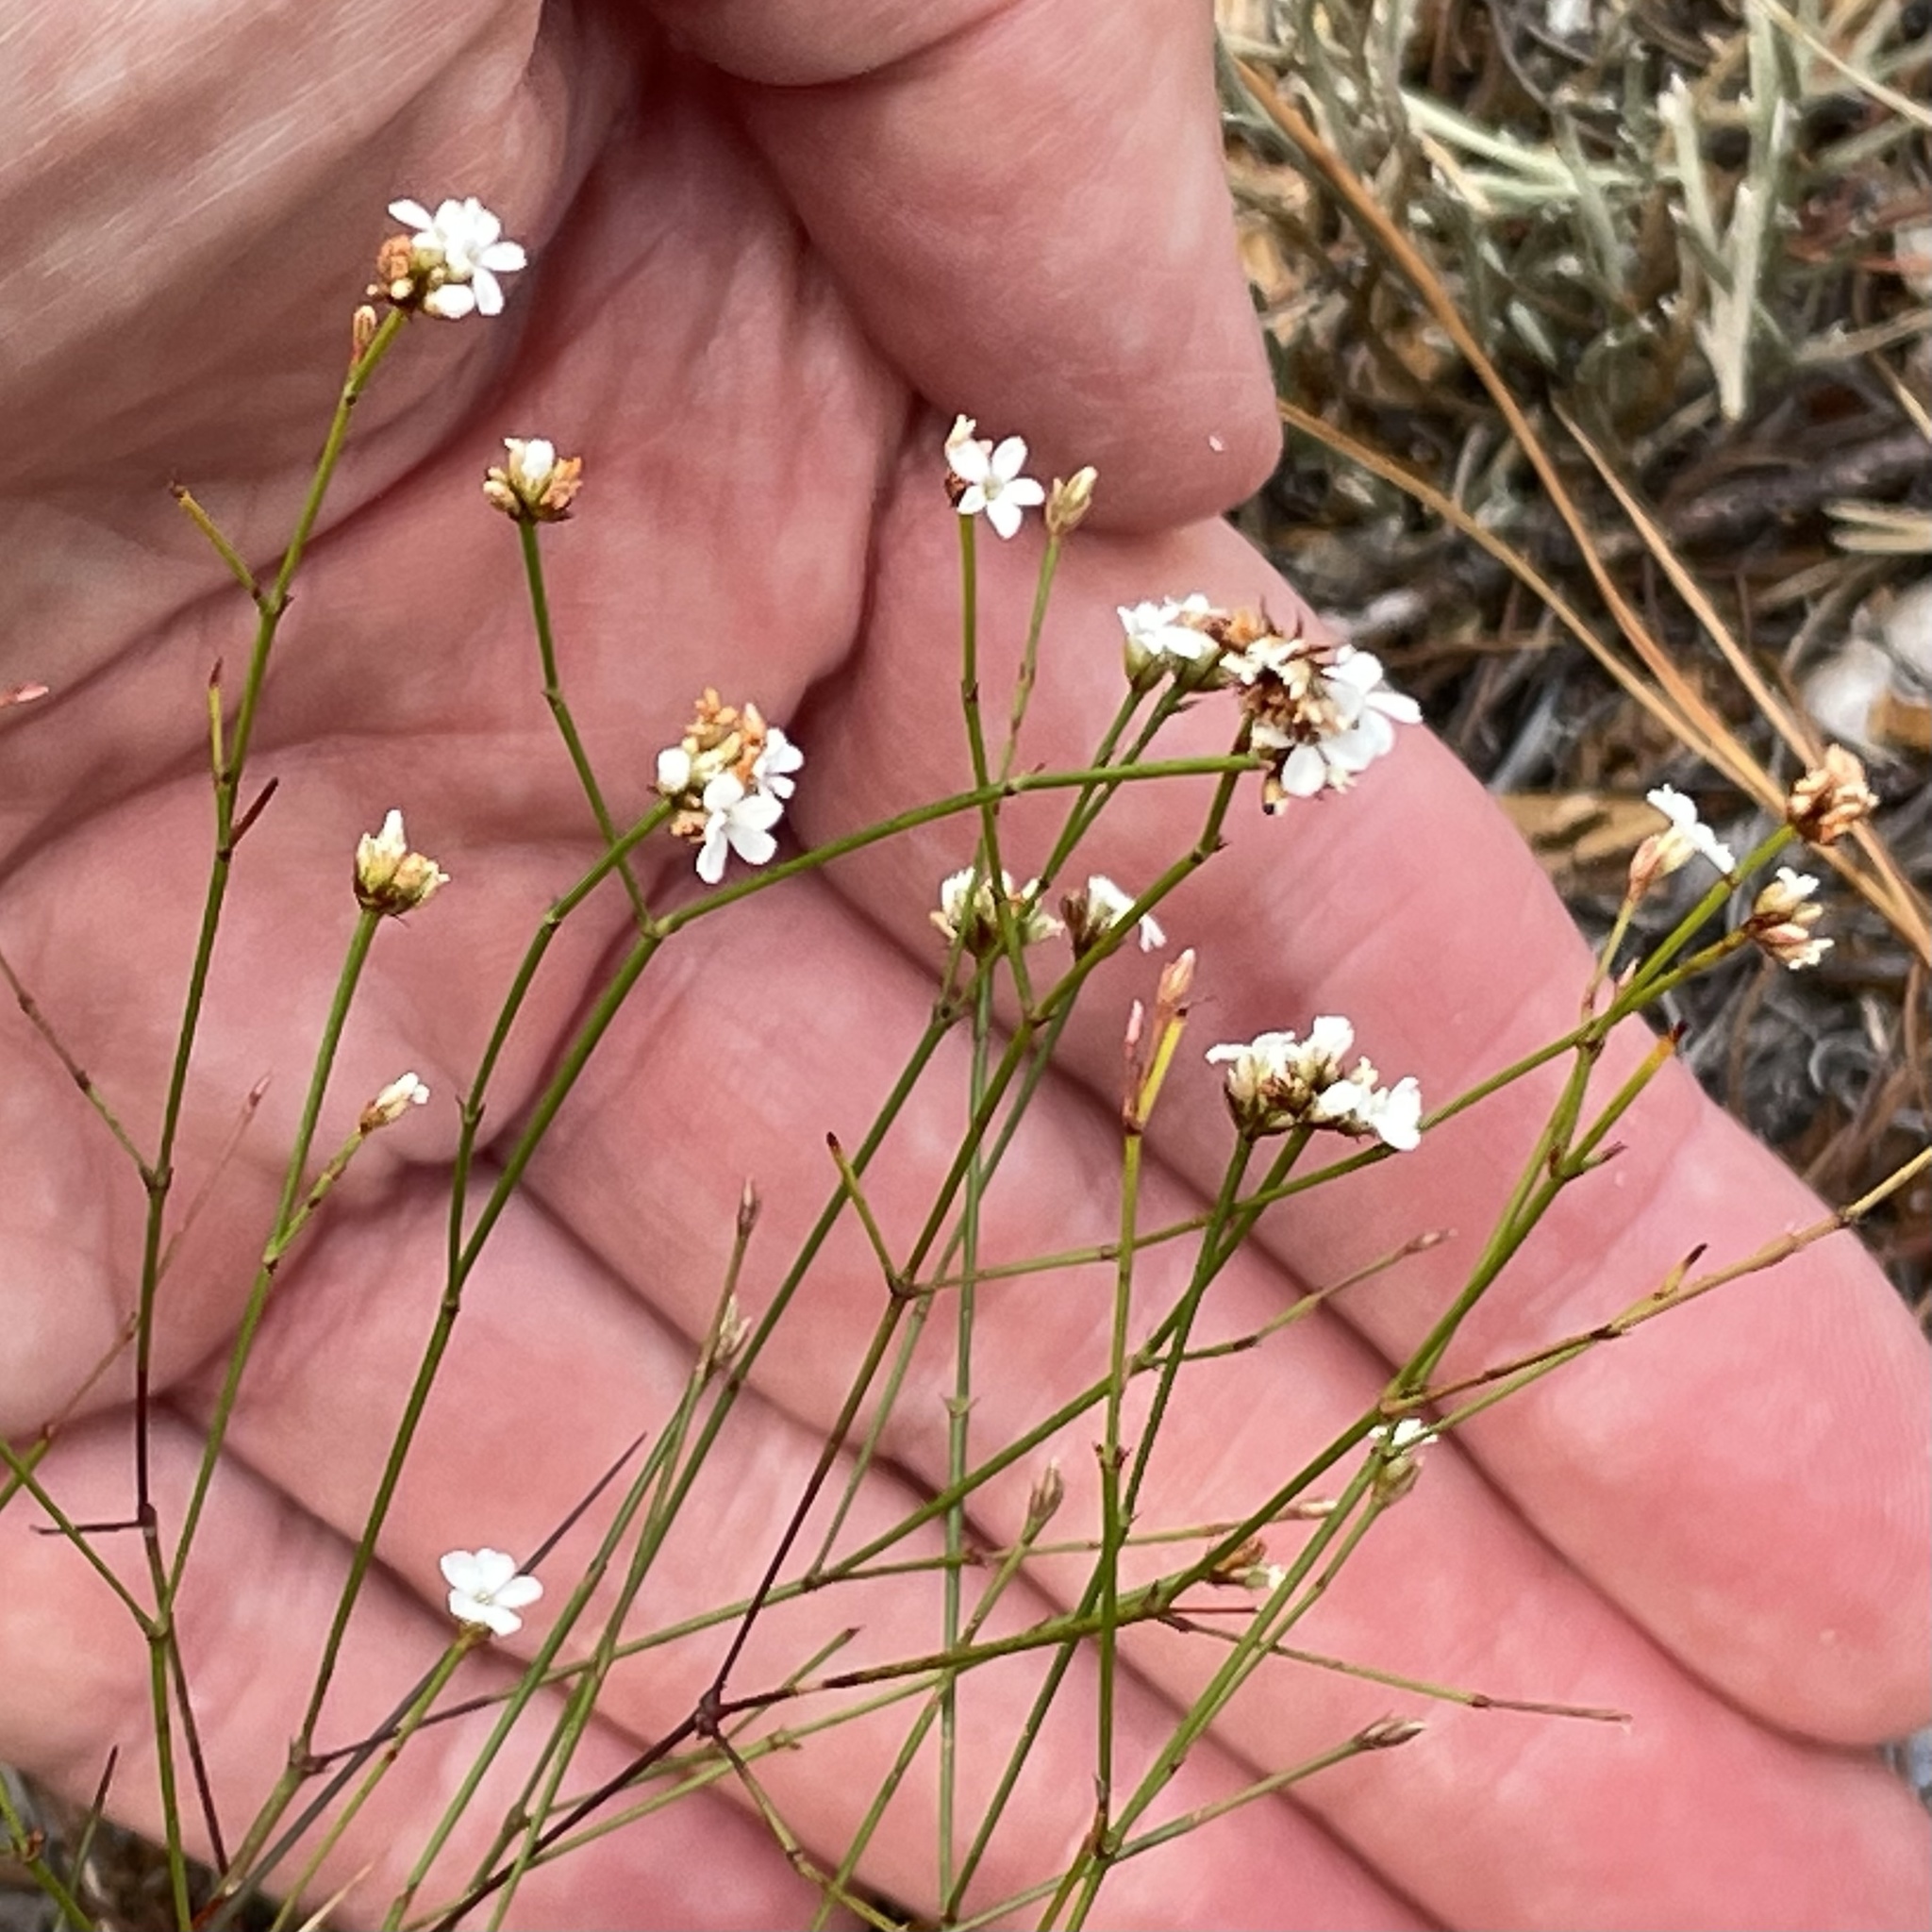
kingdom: Plantae
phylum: Tracheophyta
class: Magnoliopsida
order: Caryophyllales
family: Caryophyllaceae
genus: Stipulicida
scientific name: Stipulicida setacea
